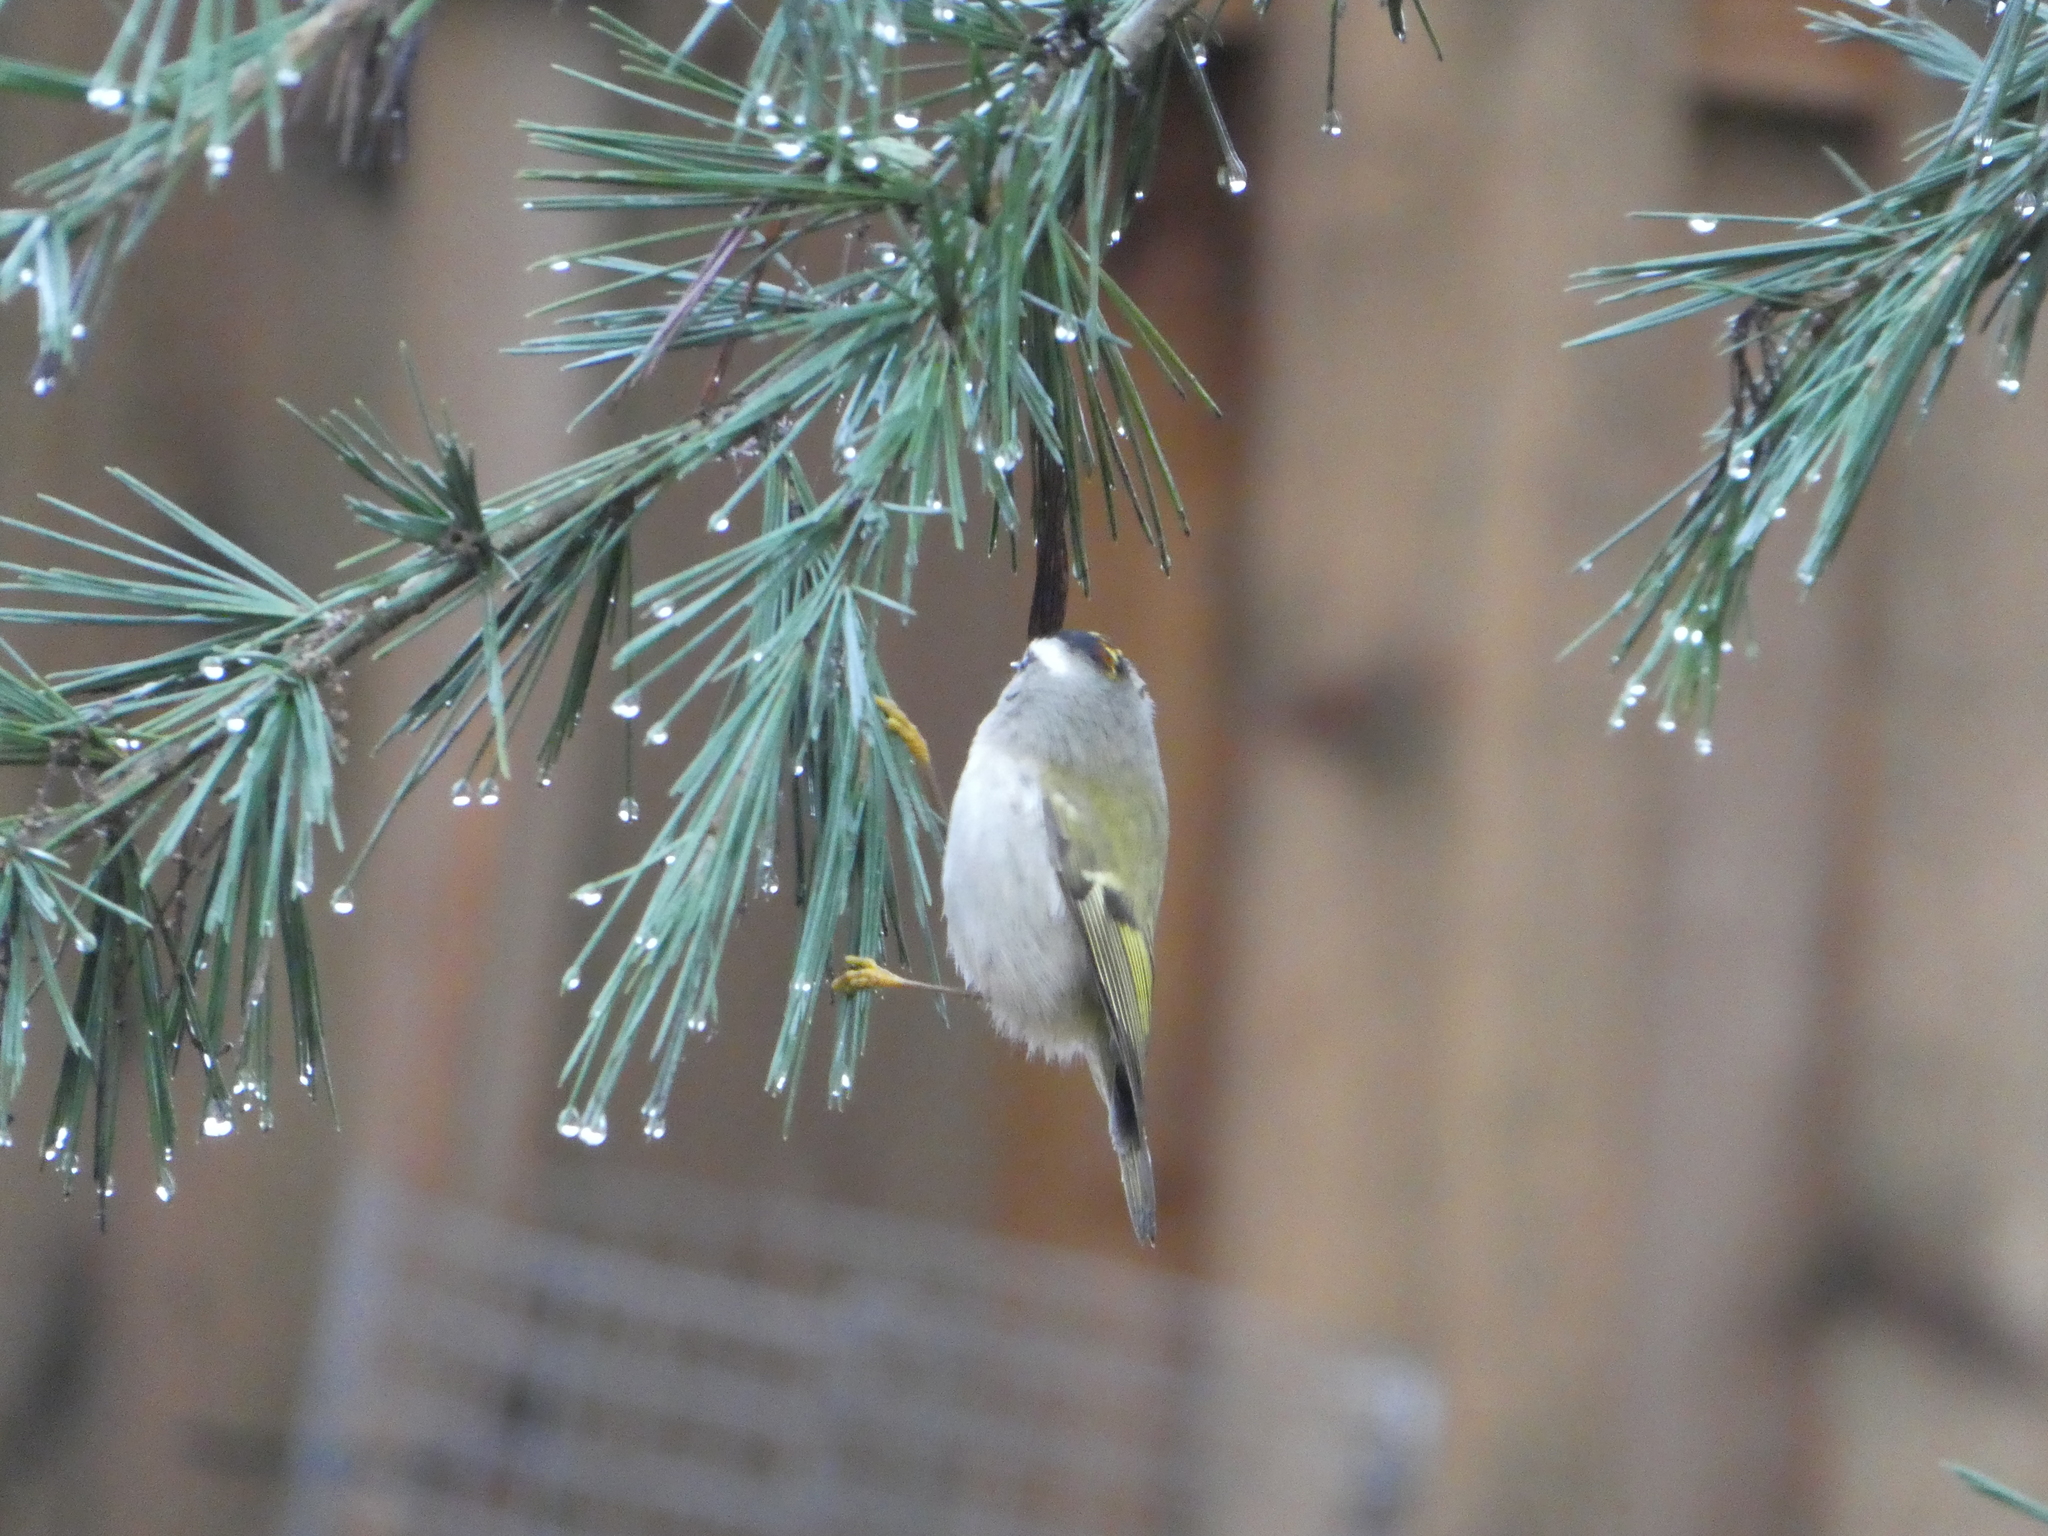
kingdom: Animalia
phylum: Chordata
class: Aves
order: Passeriformes
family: Regulidae
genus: Regulus
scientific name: Regulus satrapa
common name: Golden-crowned kinglet
